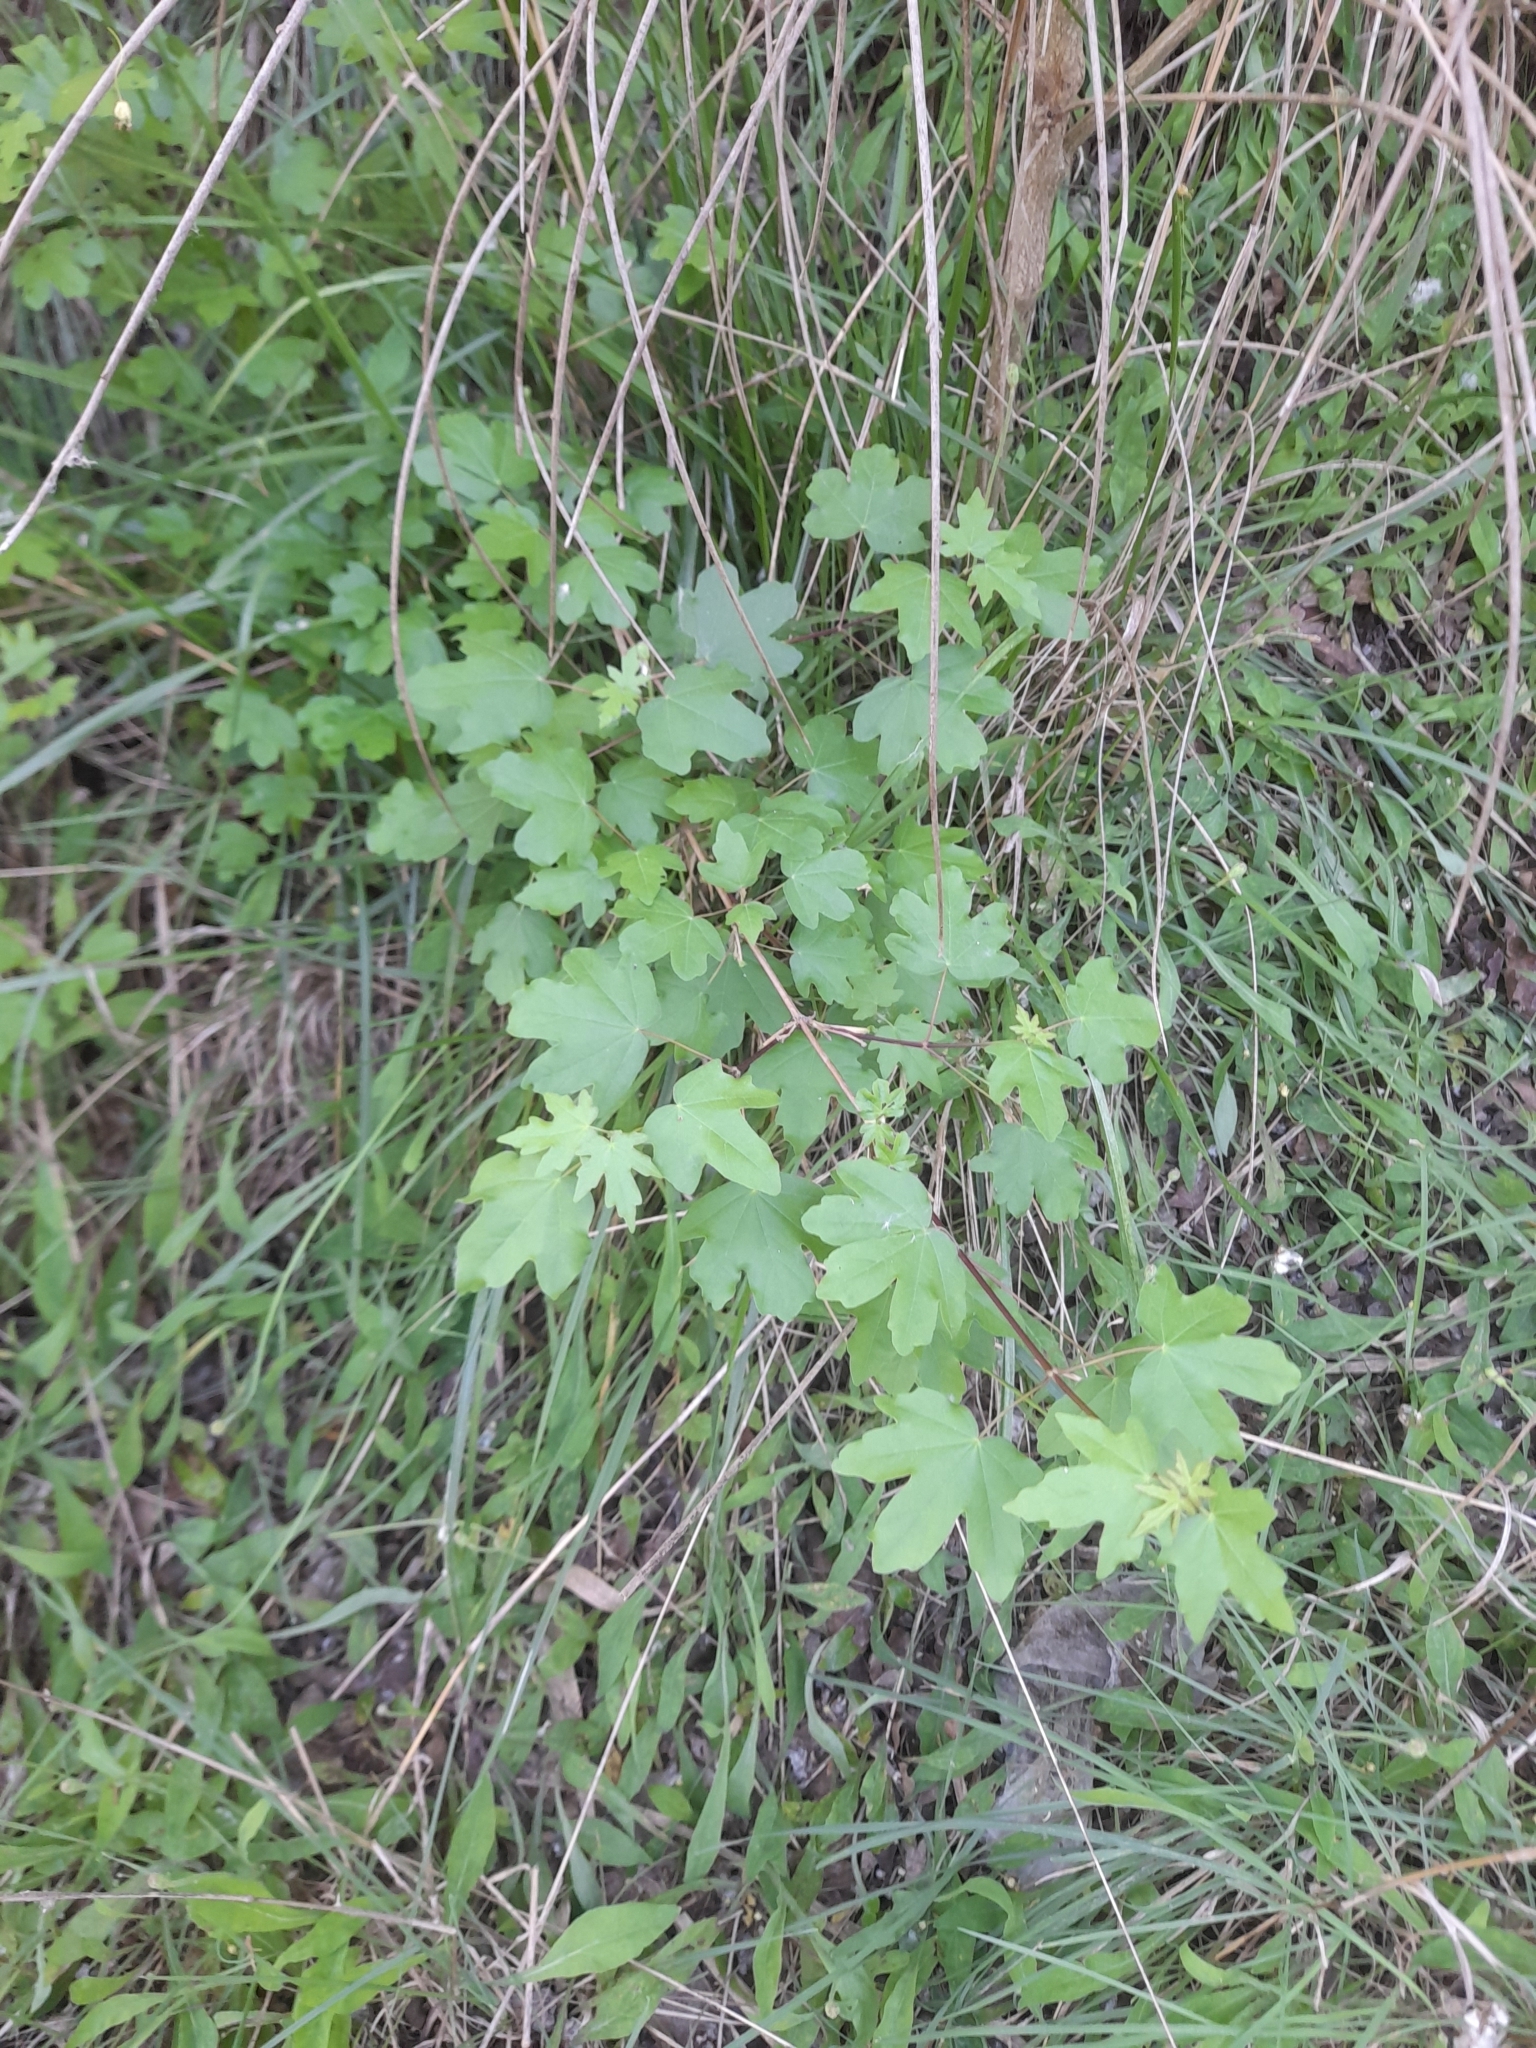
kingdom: Plantae
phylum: Tracheophyta
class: Magnoliopsida
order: Sapindales
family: Sapindaceae
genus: Acer
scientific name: Acer campestre
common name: Field maple
